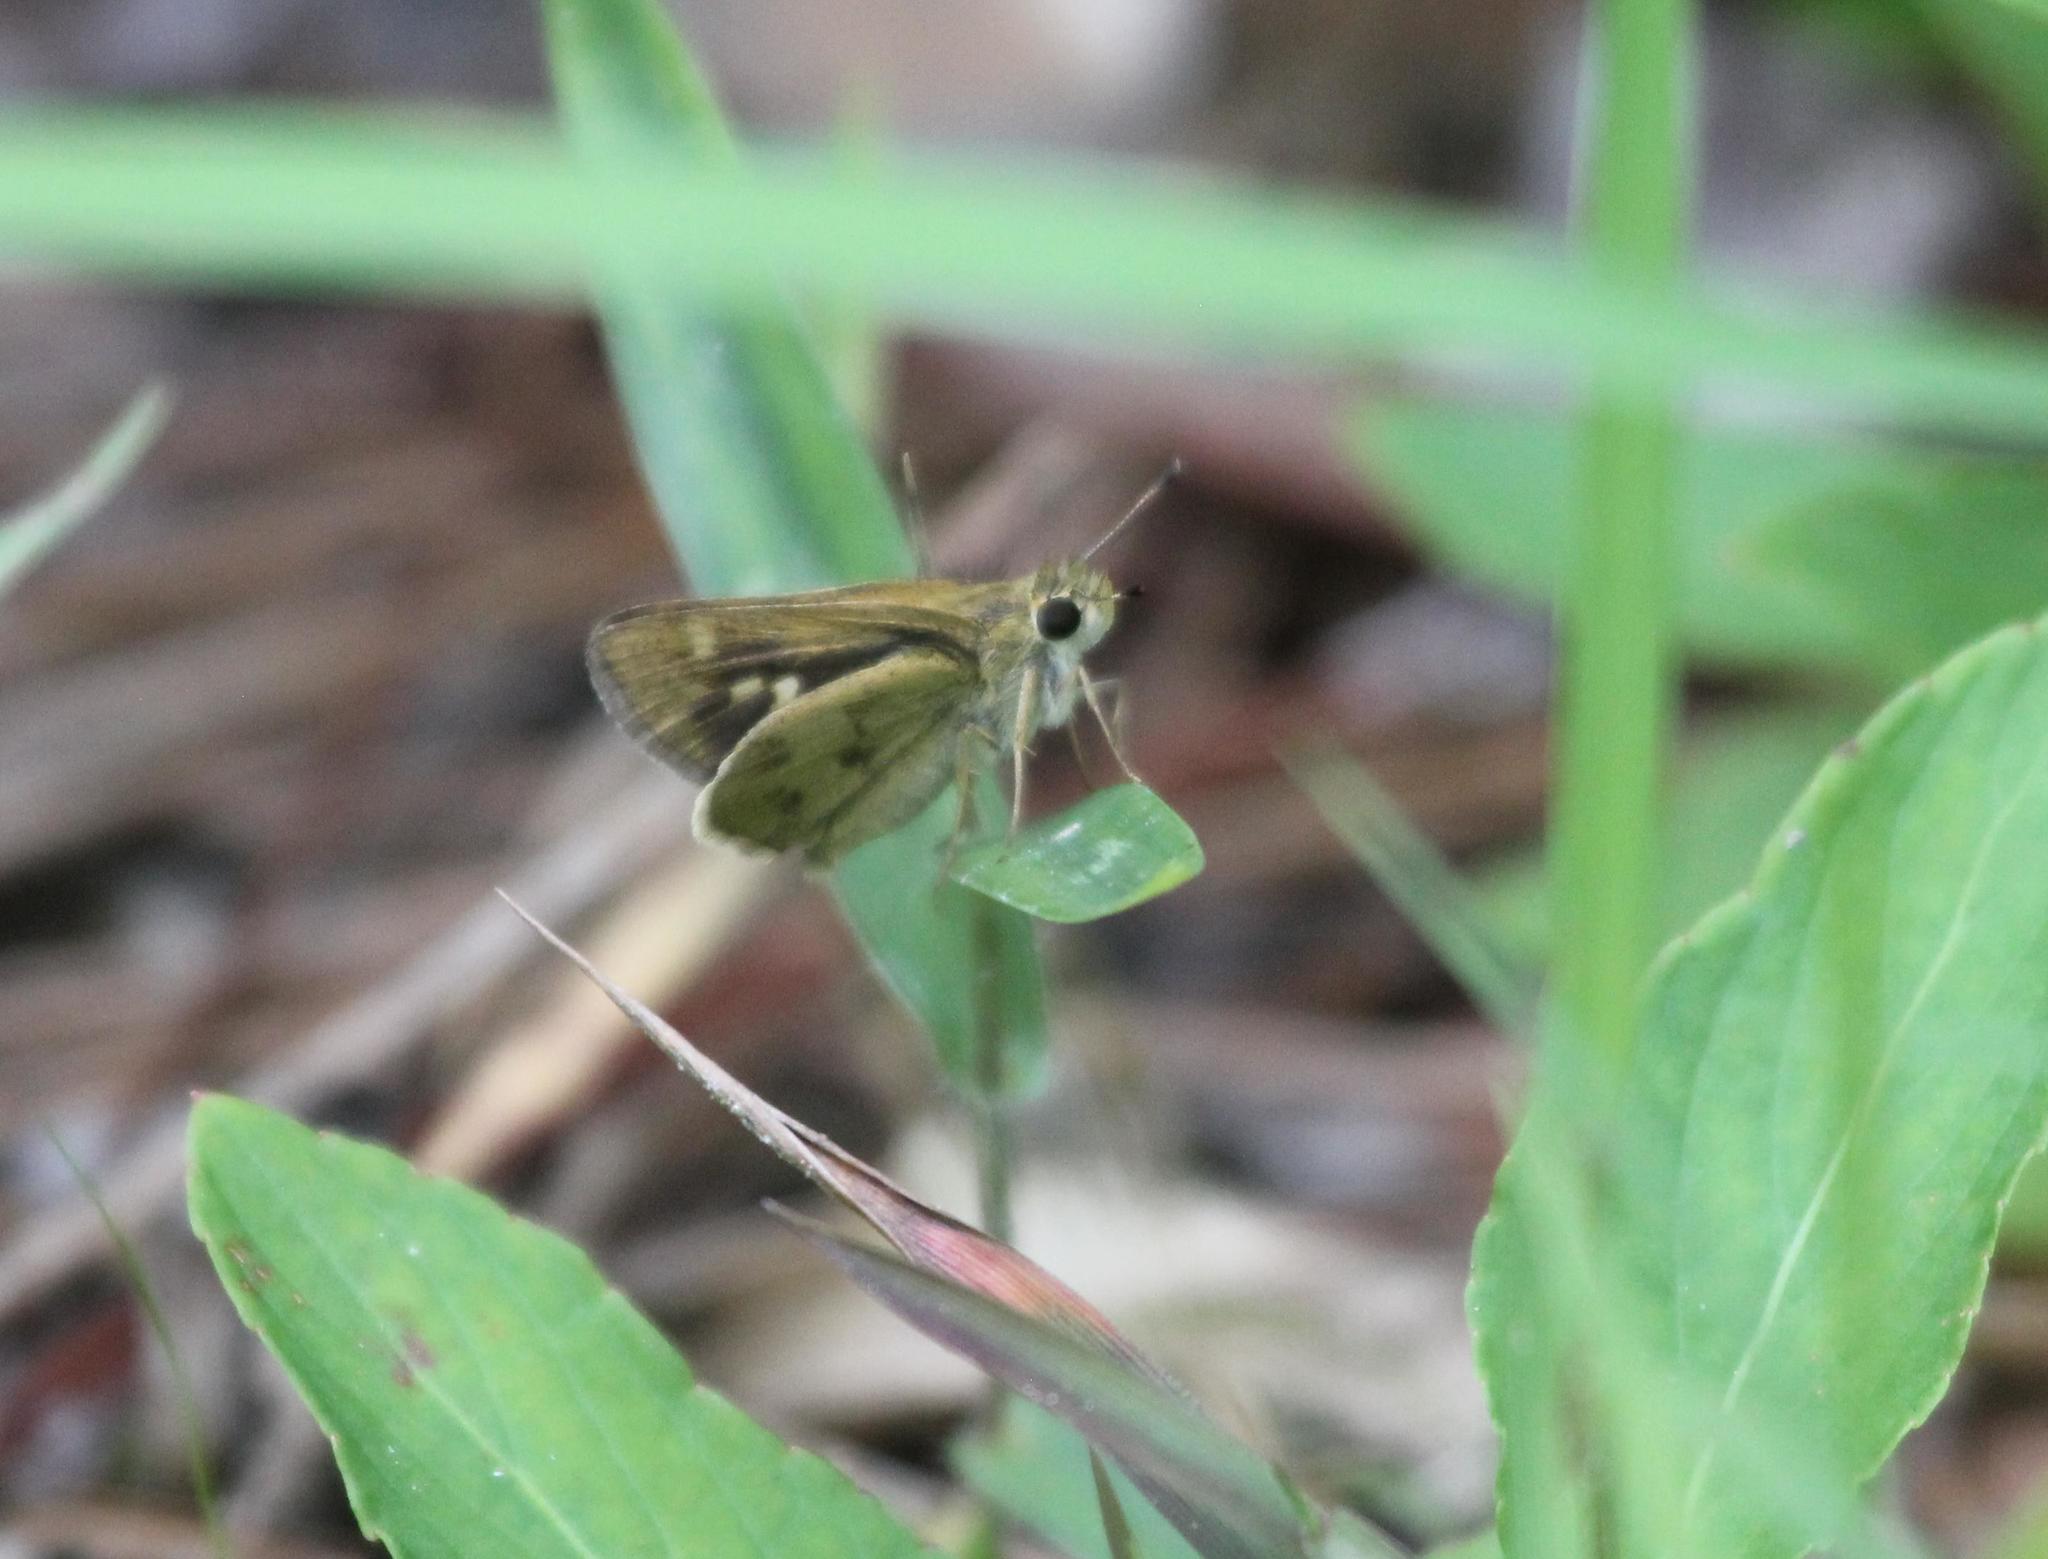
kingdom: Animalia
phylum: Arthropoda
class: Insecta
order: Lepidoptera
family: Hesperiidae
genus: Polites
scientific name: Polites vibex
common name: Whirlabout
